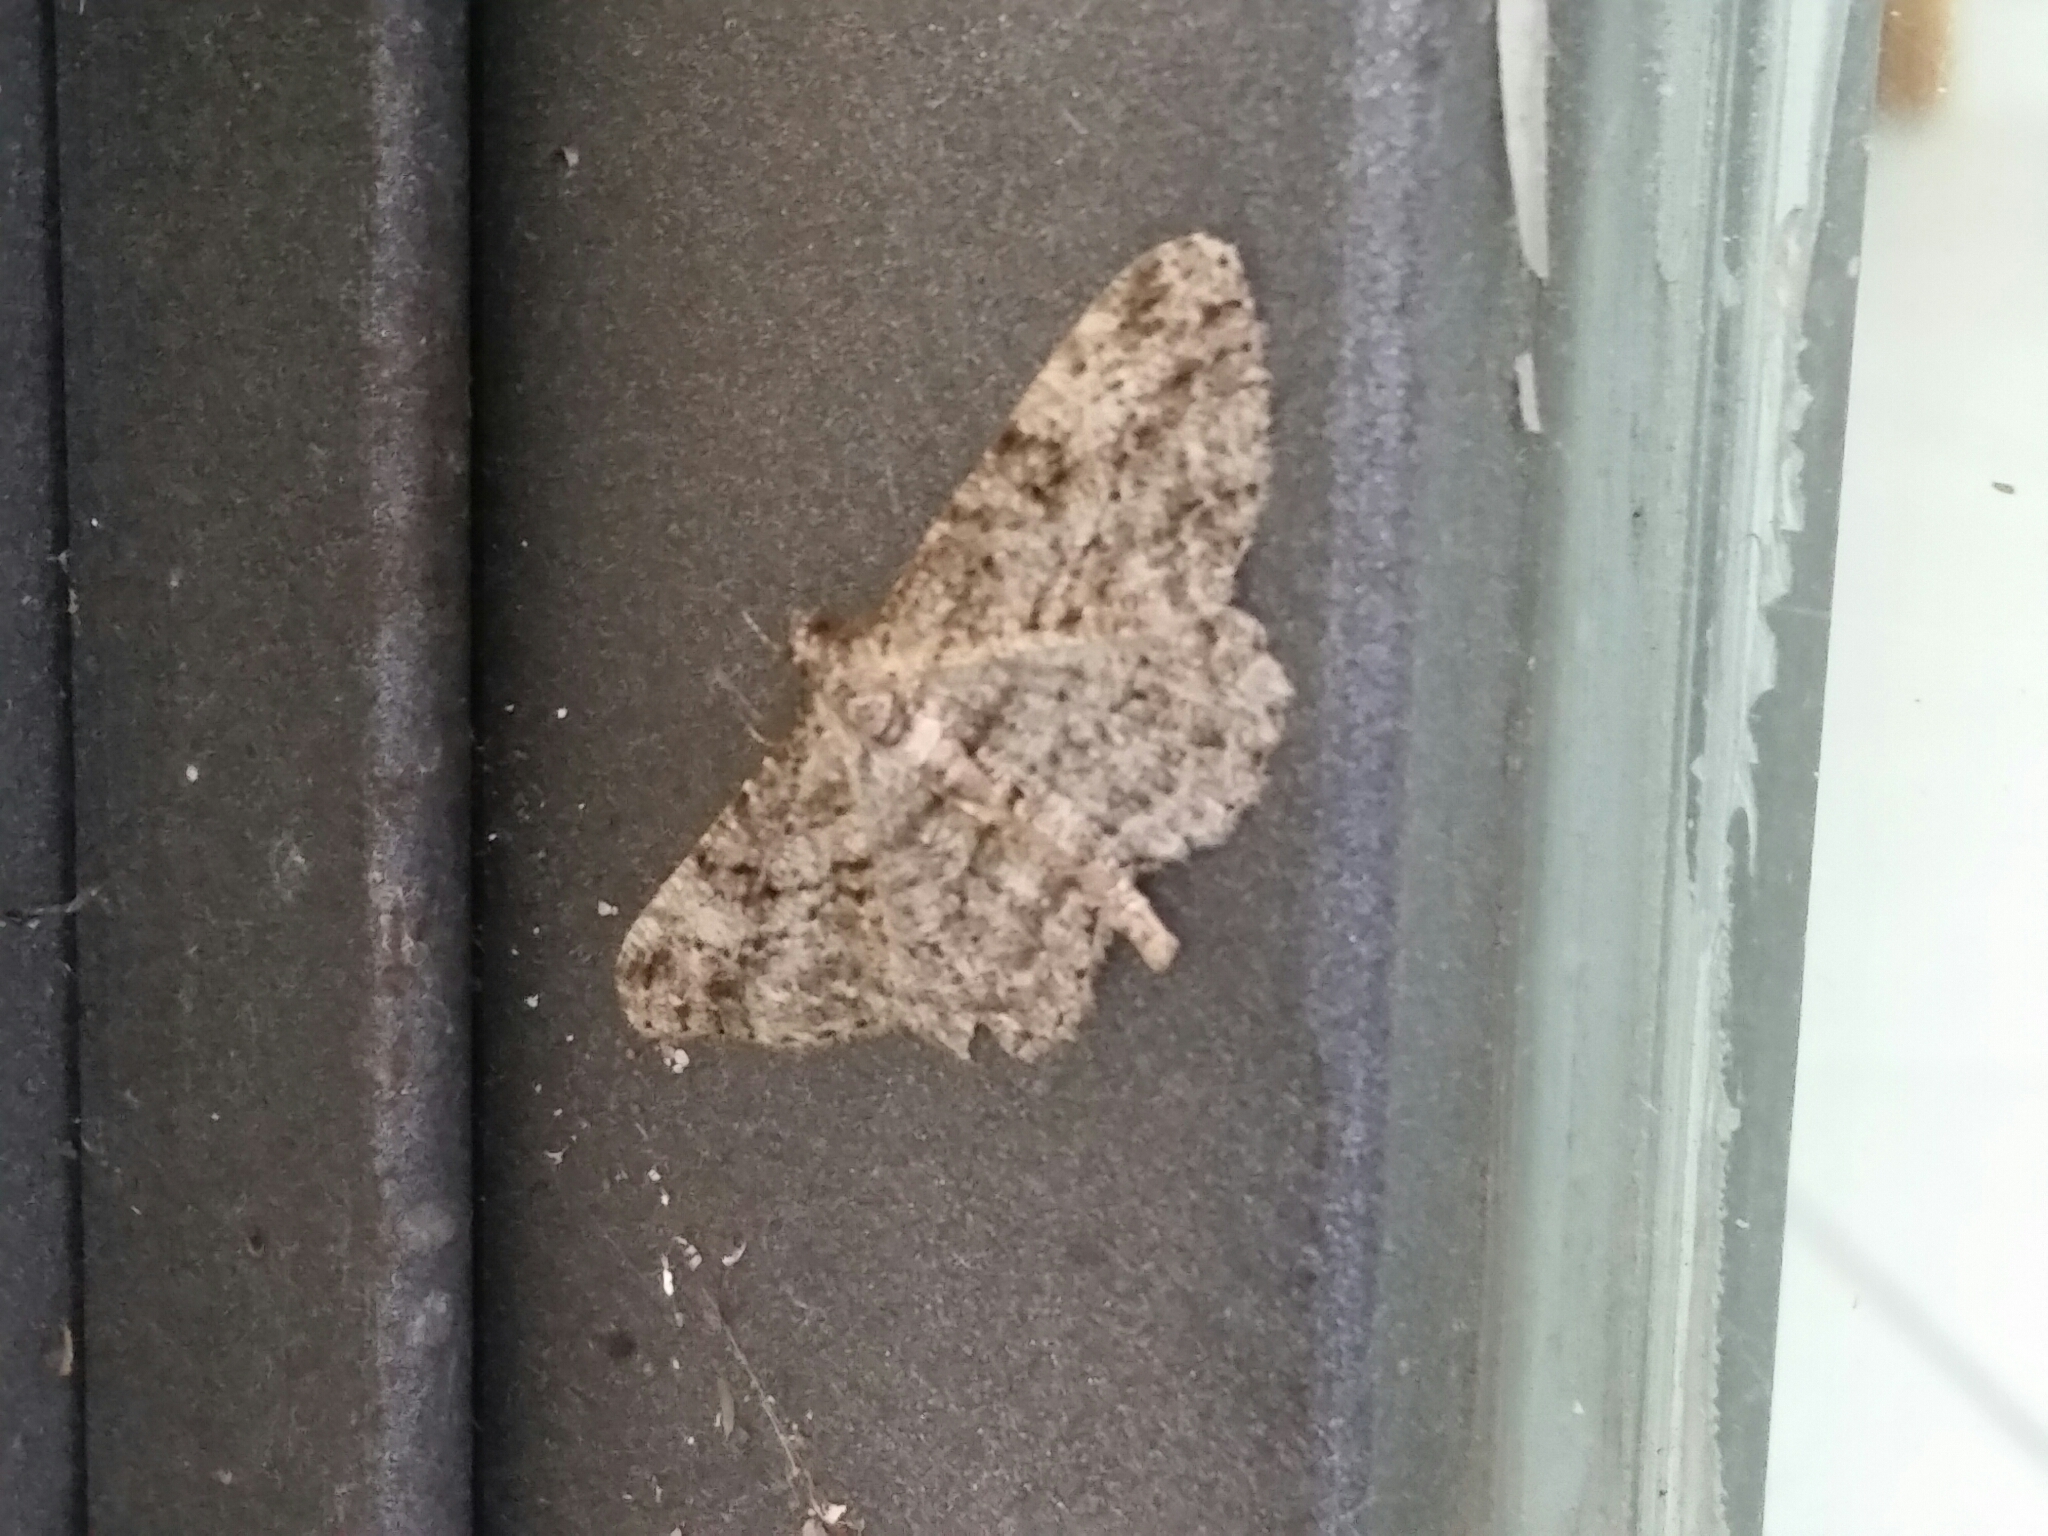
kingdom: Animalia
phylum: Arthropoda
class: Insecta
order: Lepidoptera
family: Geometridae
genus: Peribatodes
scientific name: Peribatodes rhomboidaria
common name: Willow beauty
